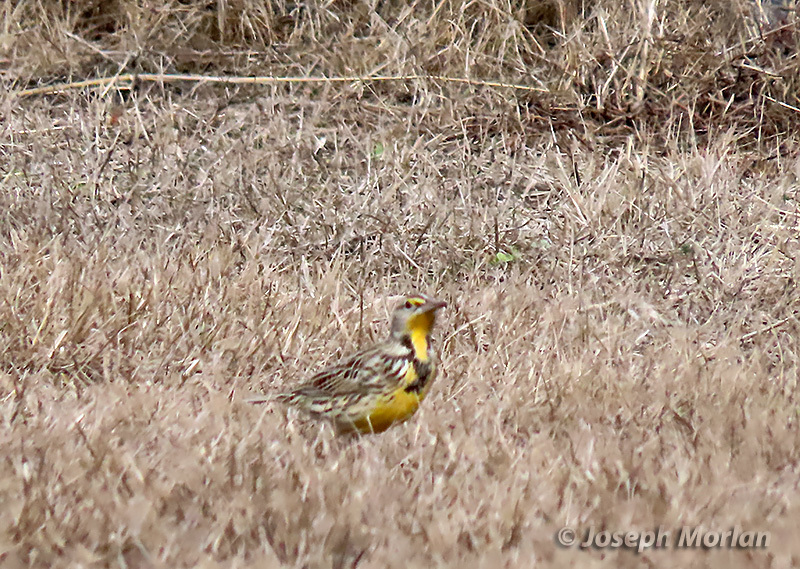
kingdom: Animalia
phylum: Chordata
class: Aves
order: Passeriformes
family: Icteridae
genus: Sturnella
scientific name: Sturnella neglecta
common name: Western meadowlark
